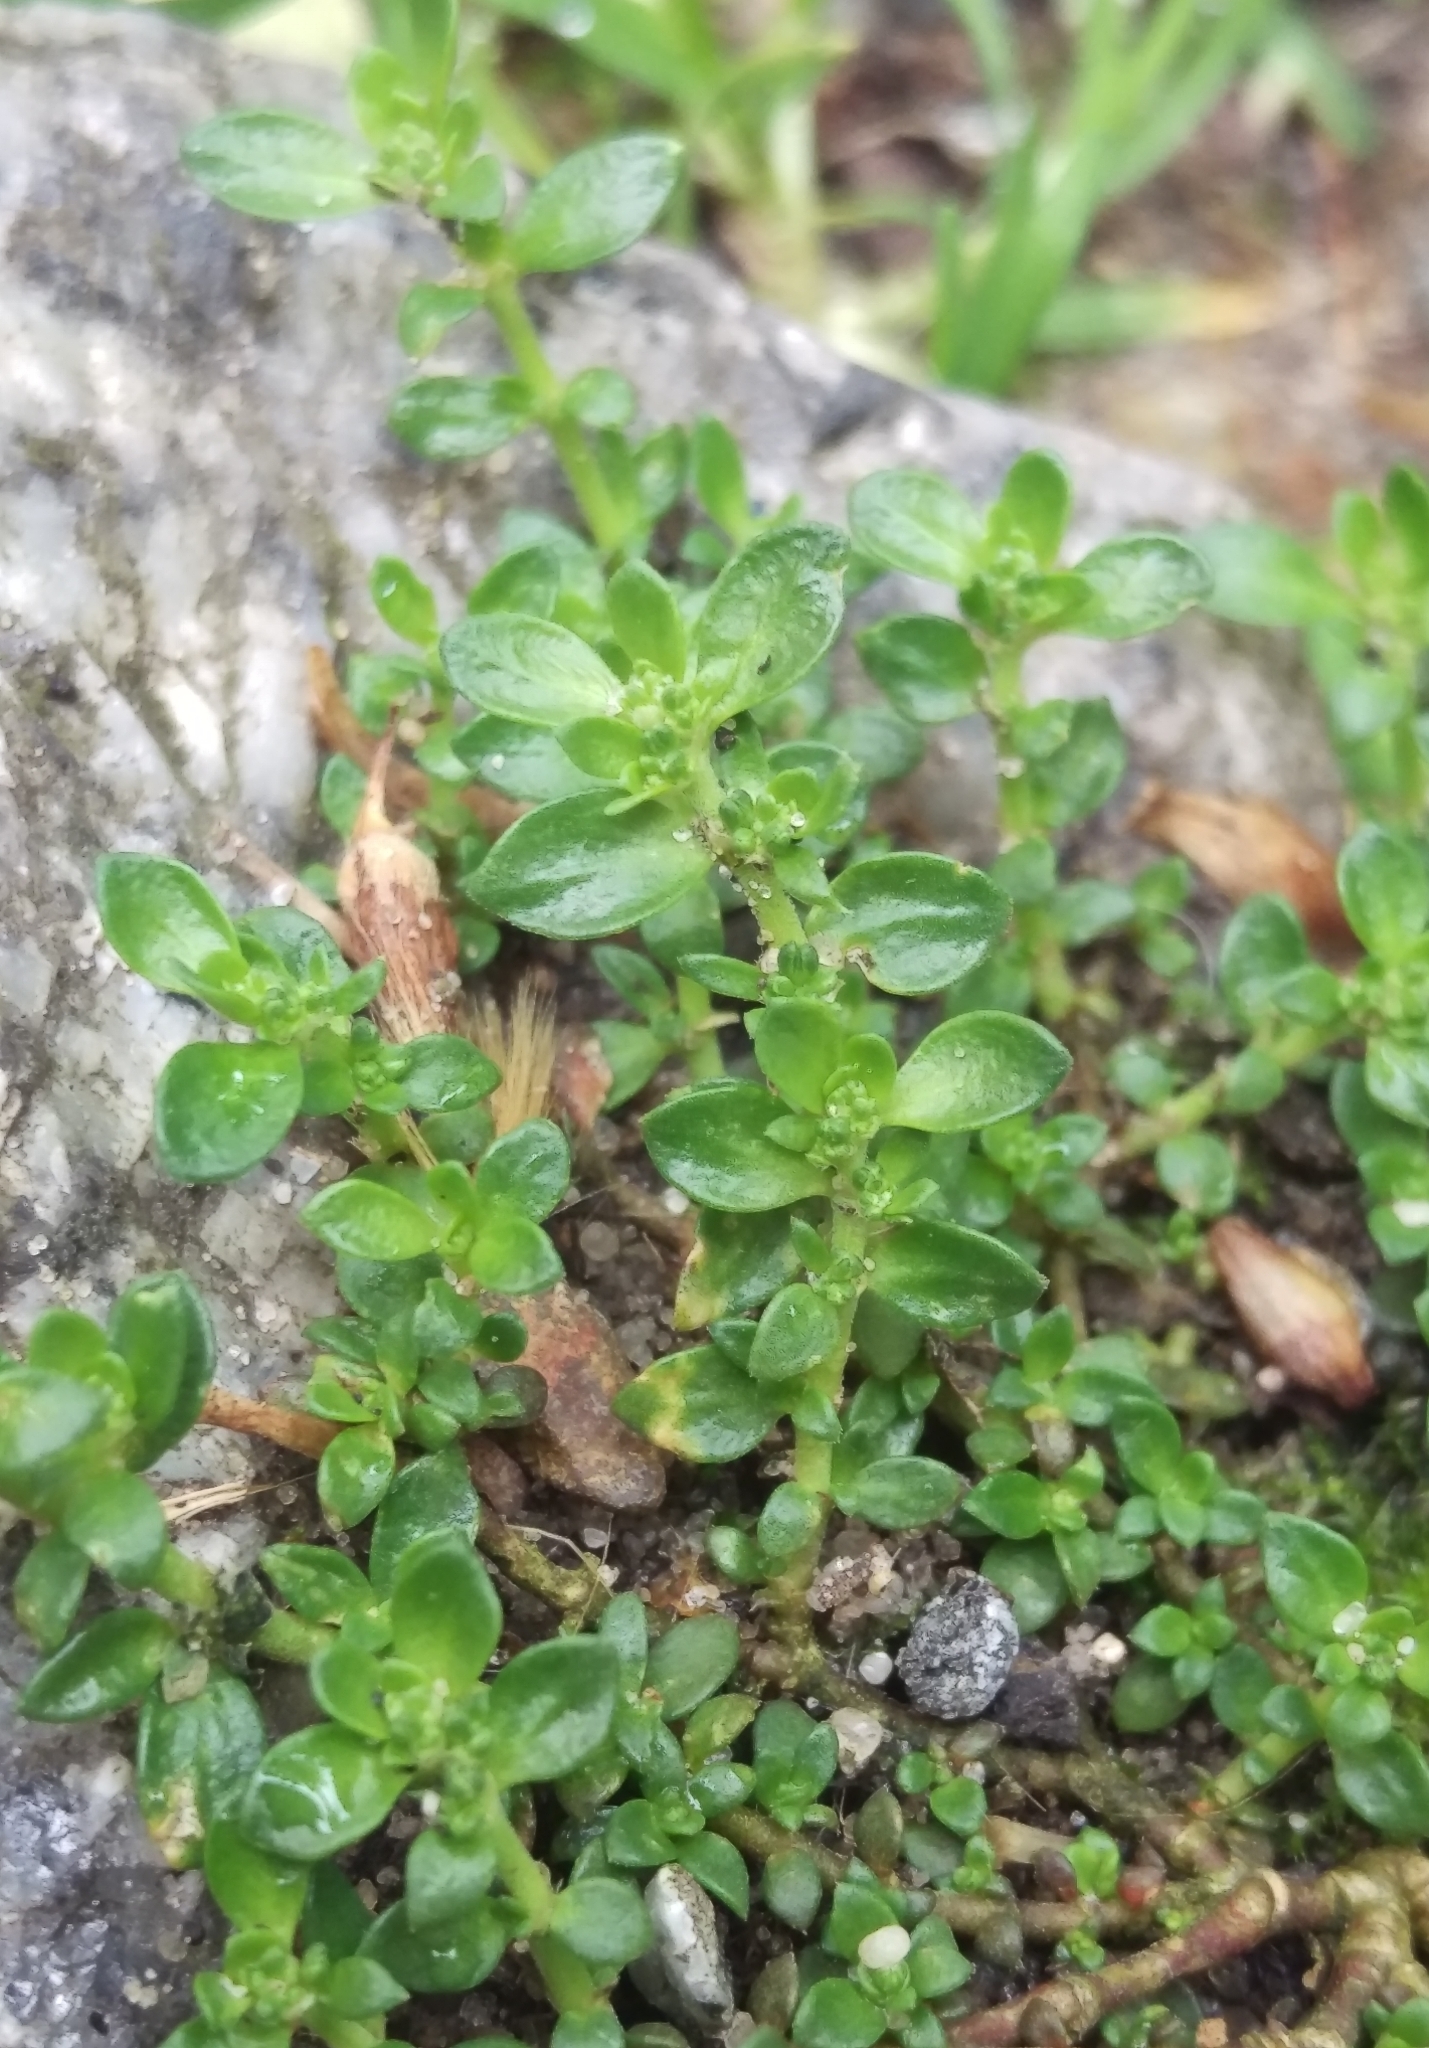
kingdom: Plantae
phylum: Tracheophyta
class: Magnoliopsida
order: Caryophyllales
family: Caryophyllaceae
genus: Herniaria
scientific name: Herniaria glabra
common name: Smooth rupturewort
